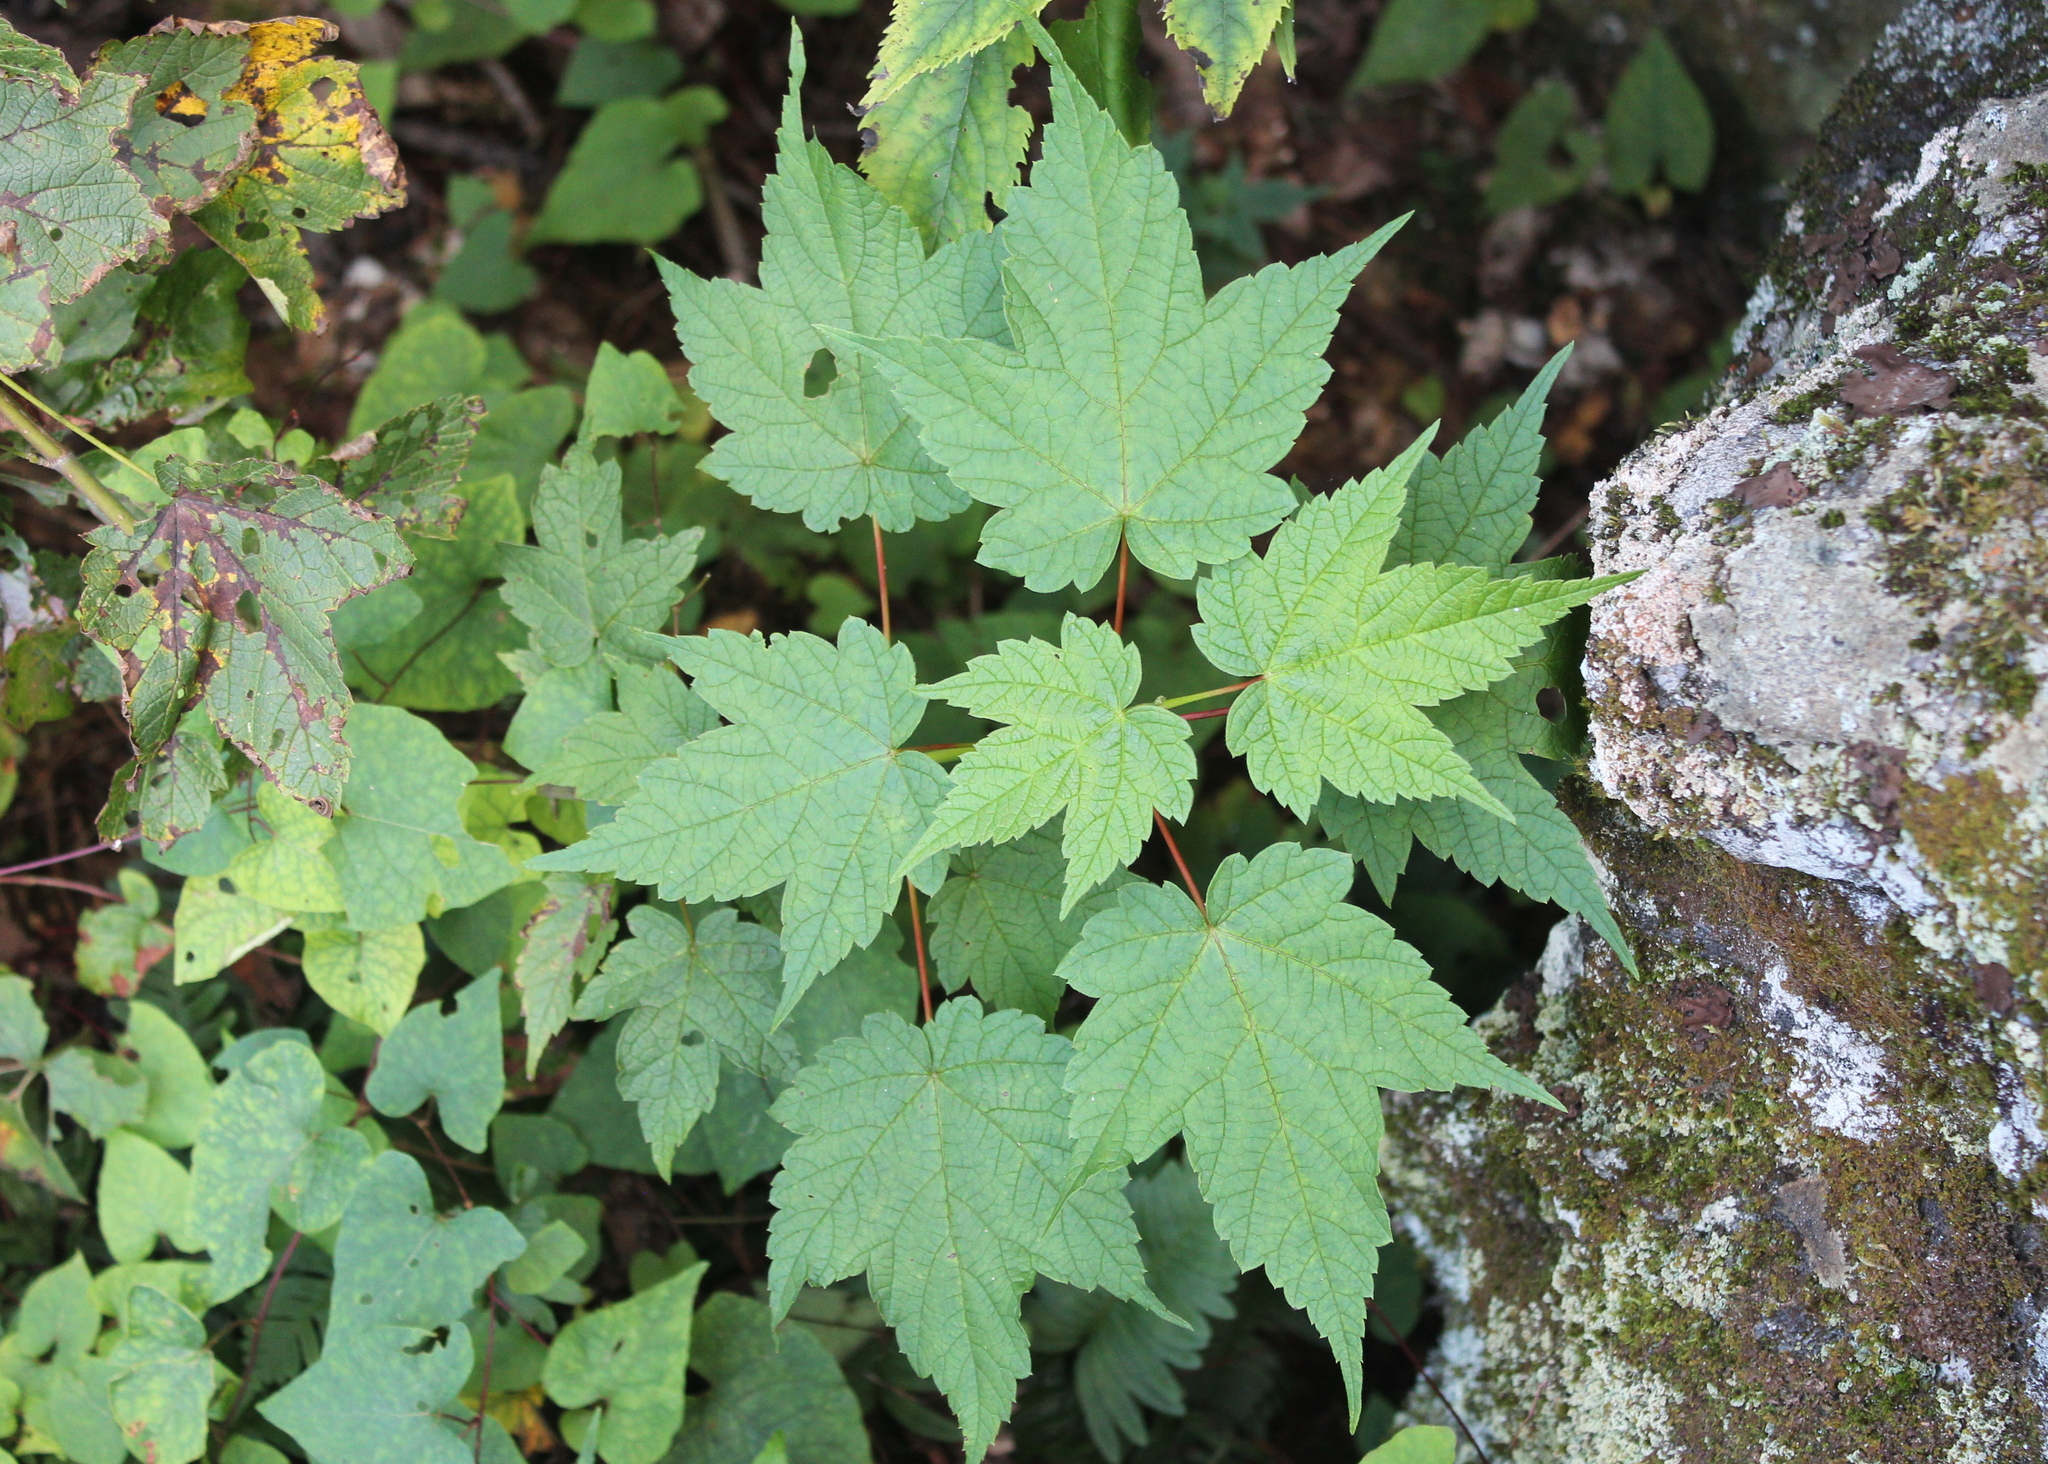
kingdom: Plantae
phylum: Tracheophyta
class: Magnoliopsida
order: Sapindales
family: Sapindaceae
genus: Acer
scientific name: Acer spicatum
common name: Mountain maple
